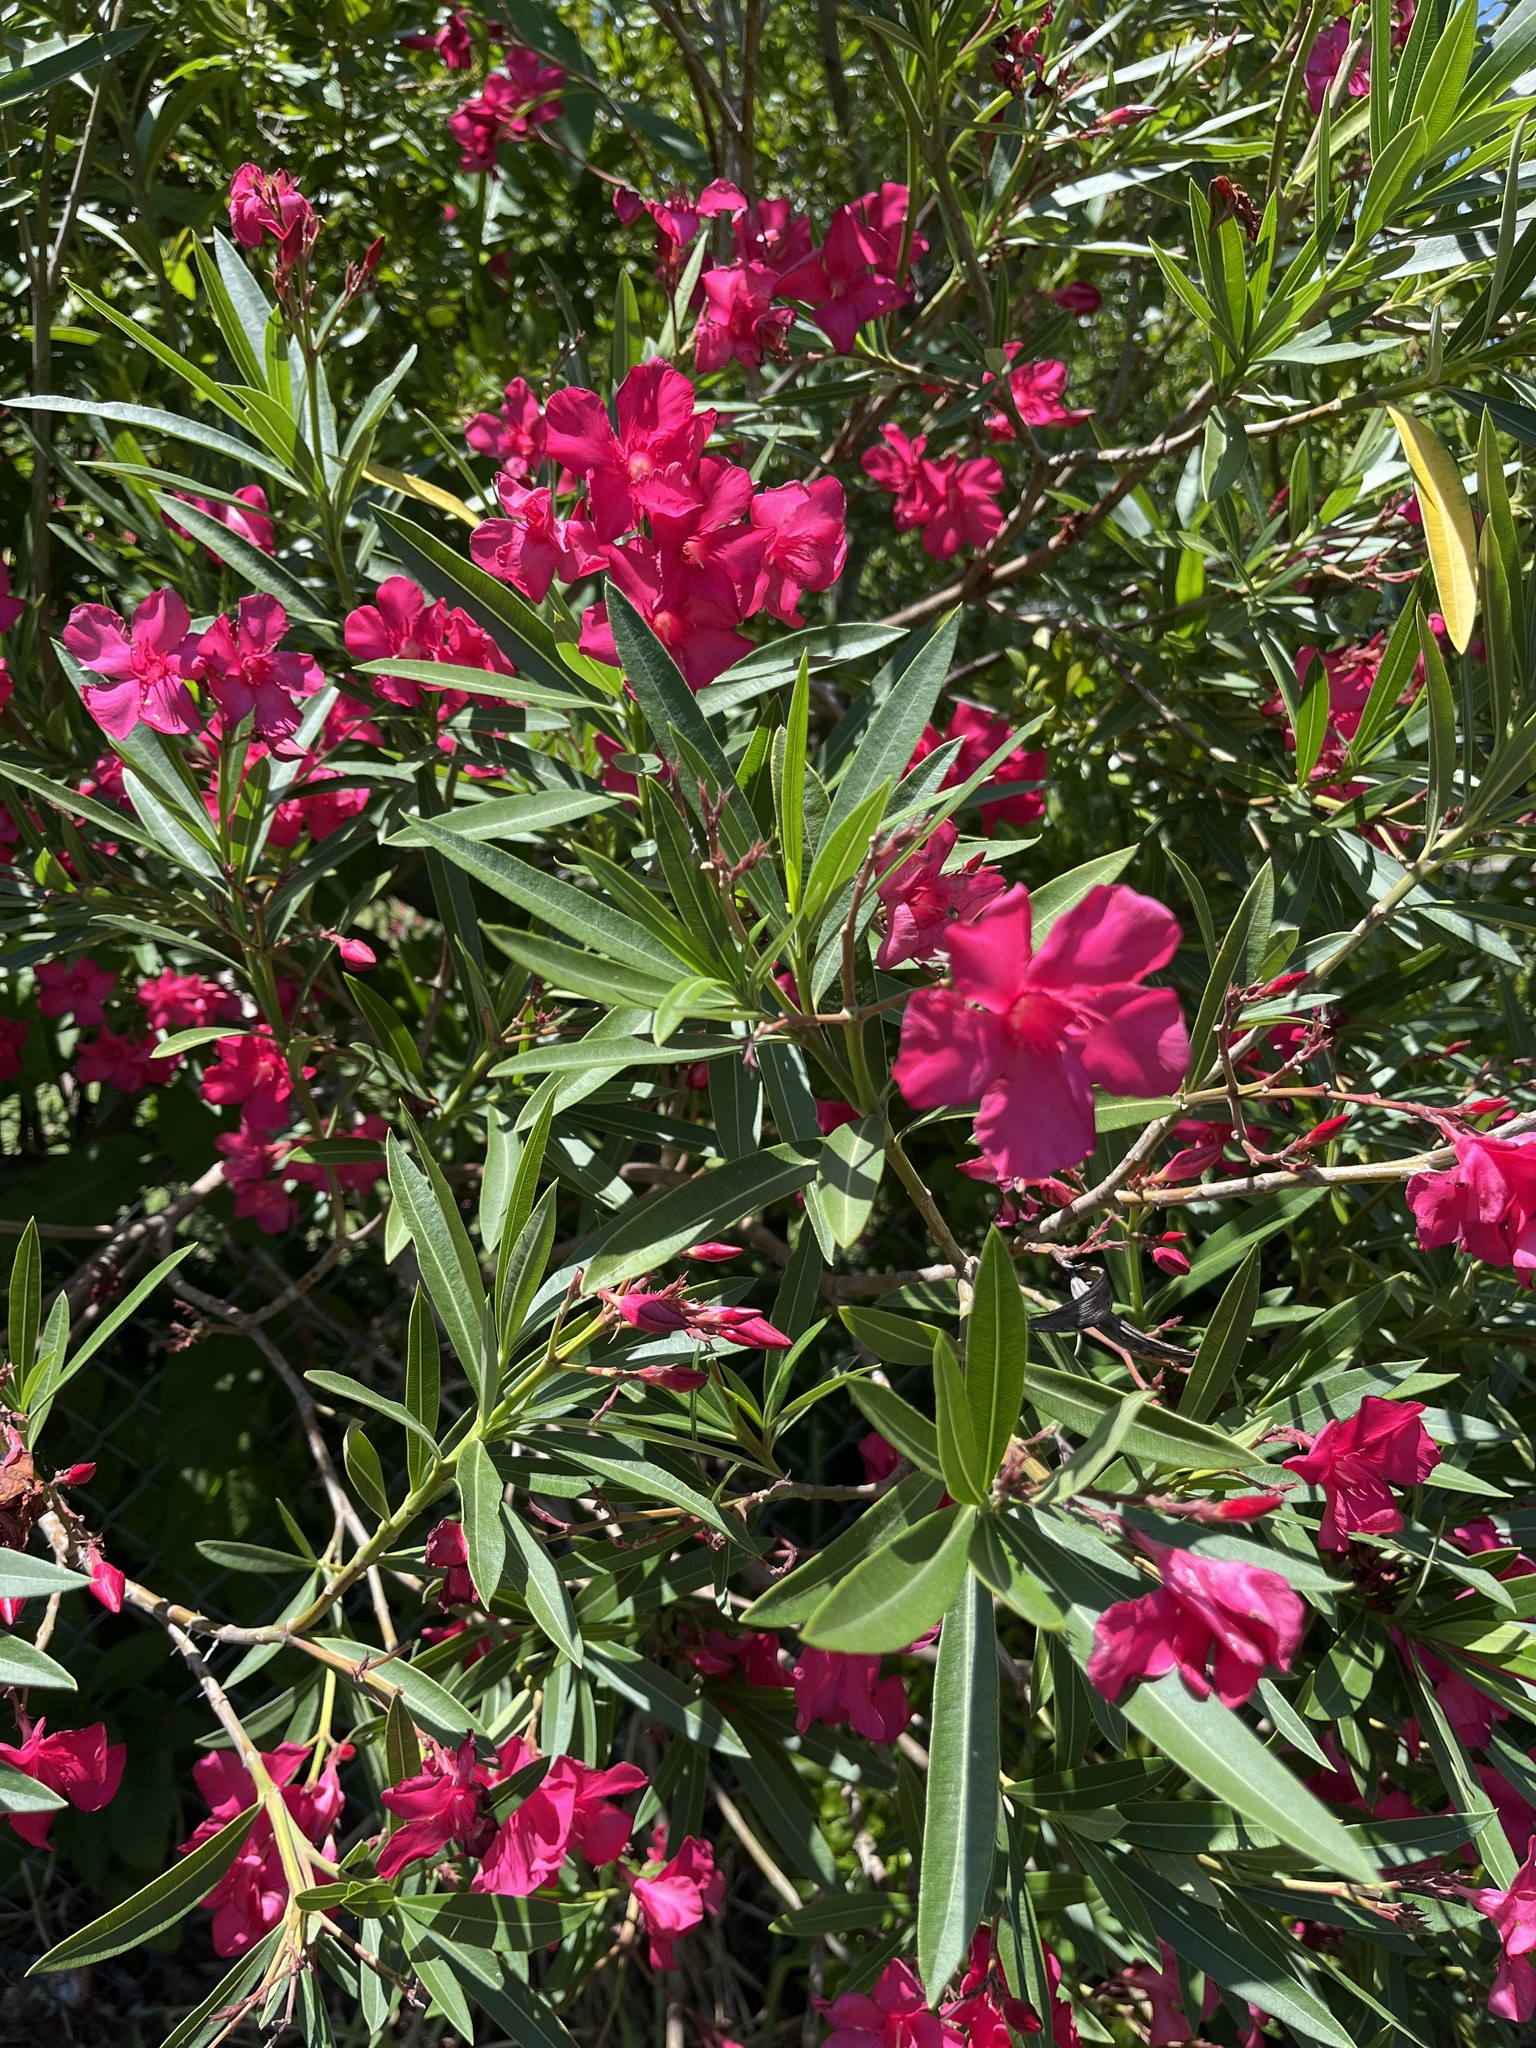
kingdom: Plantae
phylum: Tracheophyta
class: Magnoliopsida
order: Gentianales
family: Apocynaceae
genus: Nerium
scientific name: Nerium oleander
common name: Oleander
